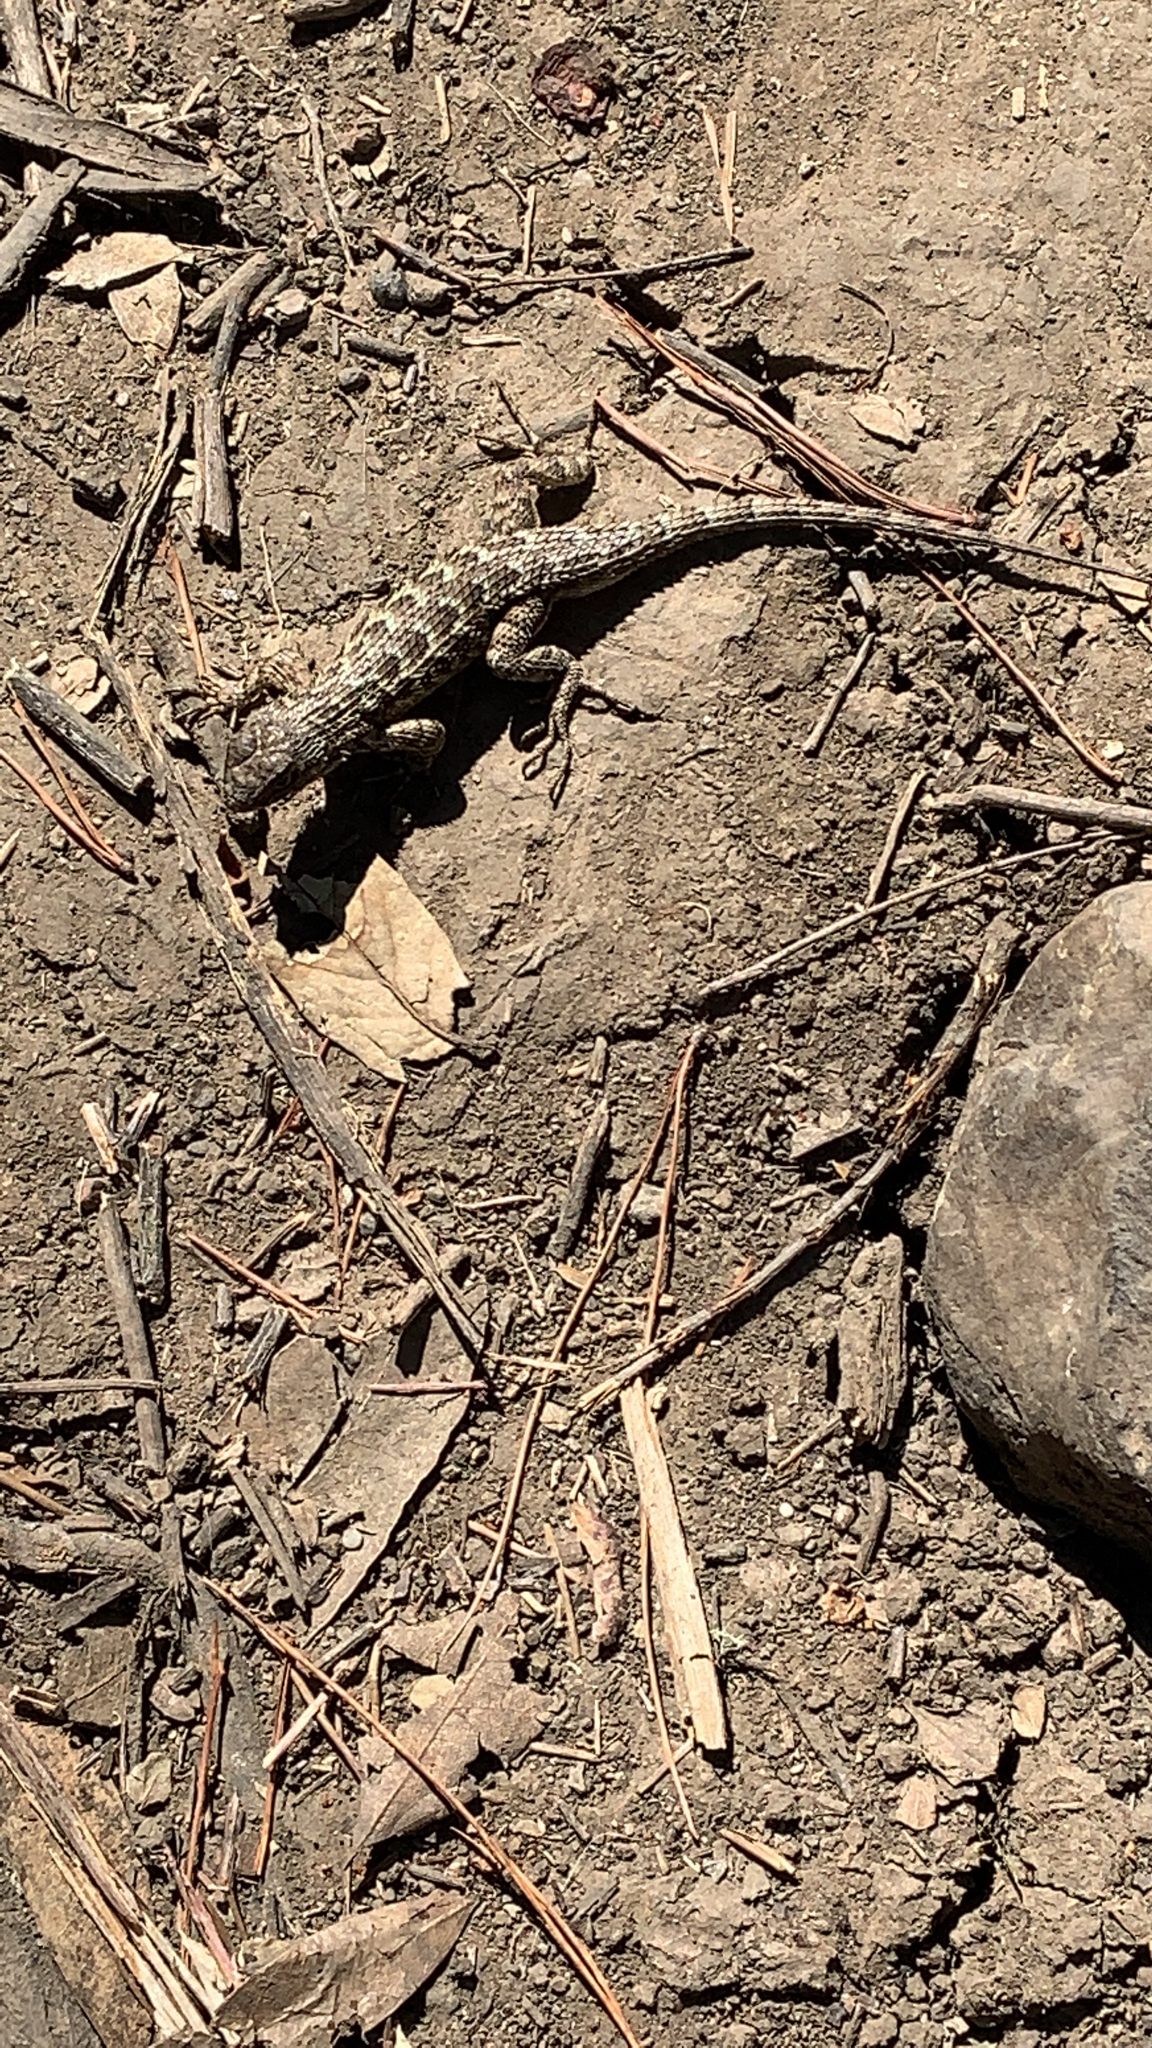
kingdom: Animalia
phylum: Chordata
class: Squamata
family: Phrynosomatidae
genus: Sceloporus
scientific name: Sceloporus occidentalis
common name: Western fence lizard
